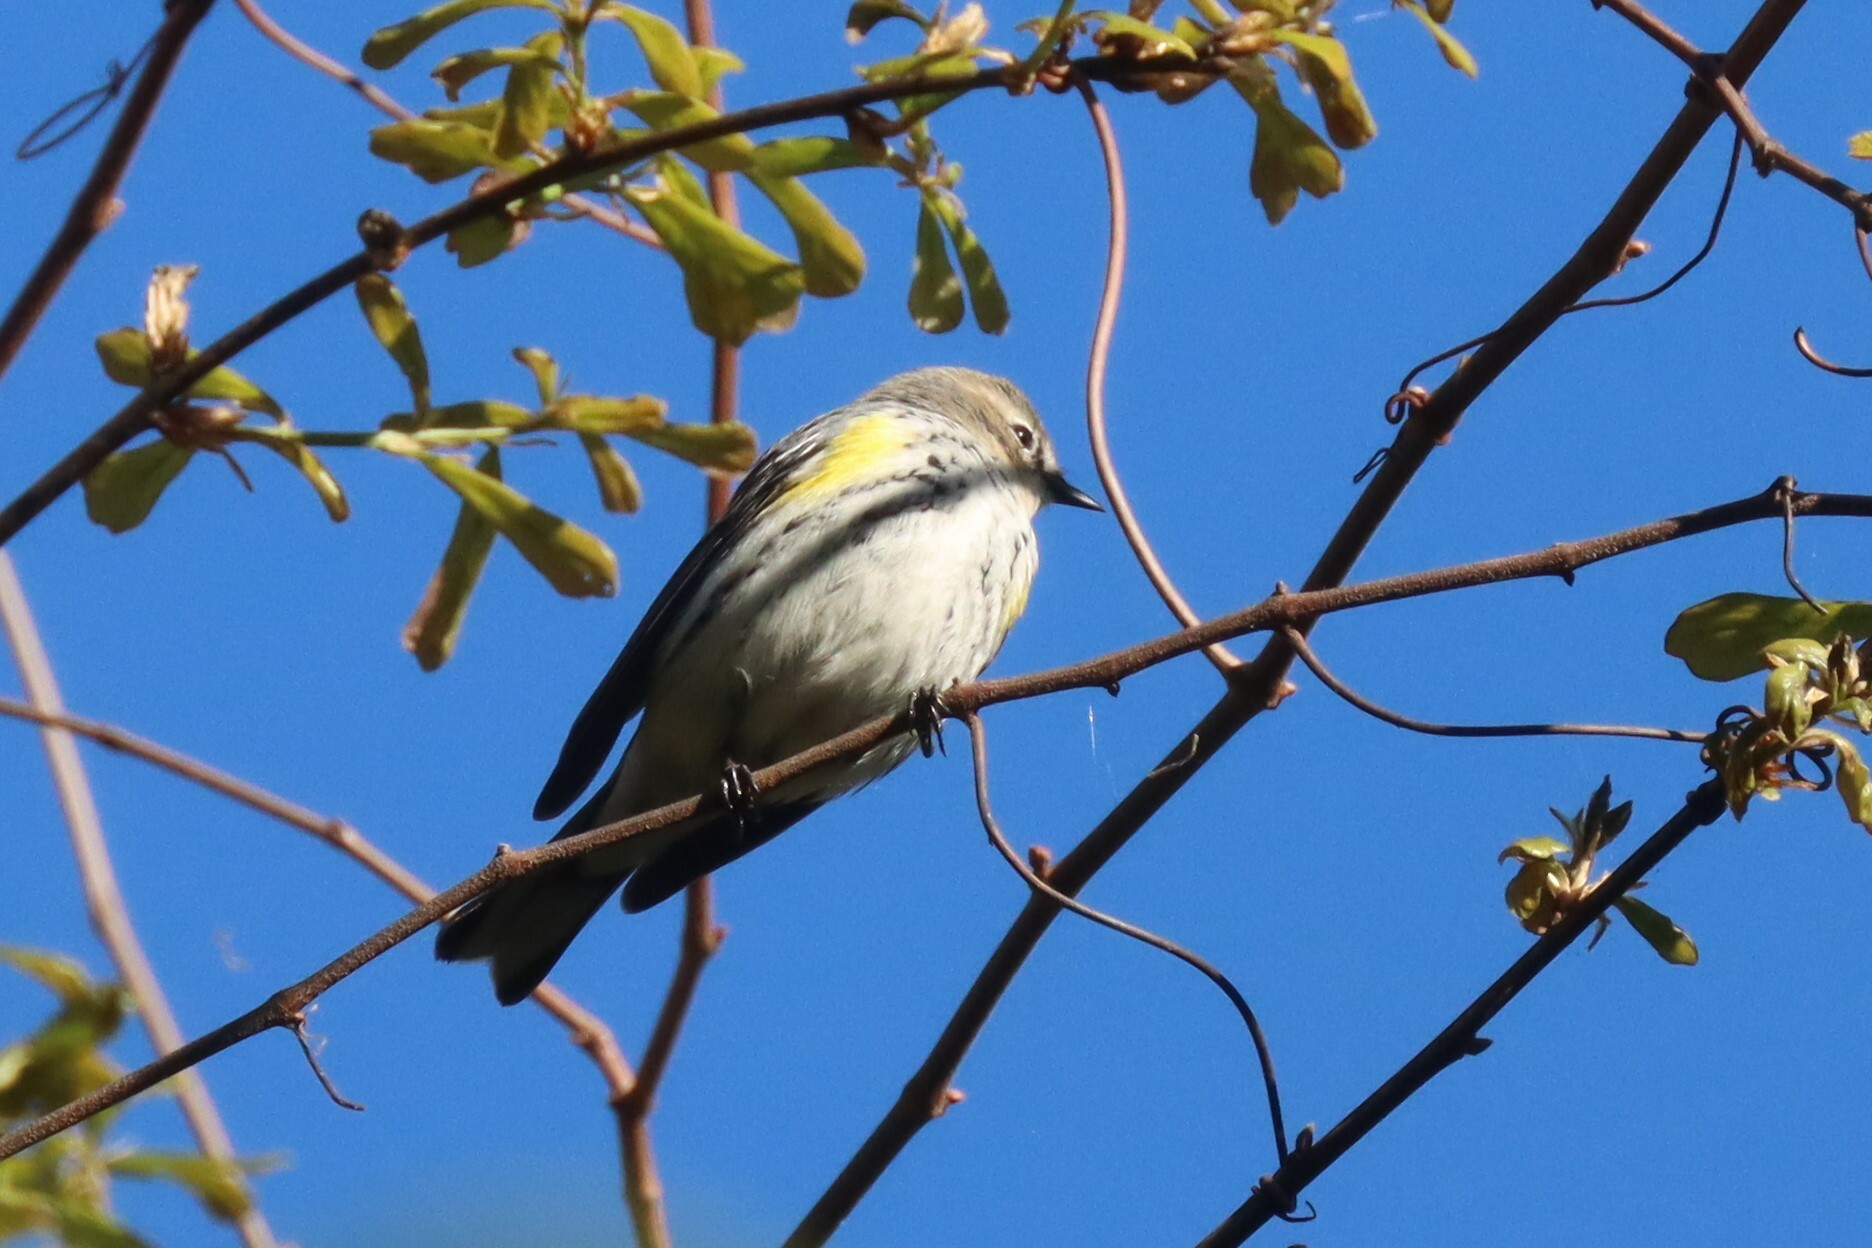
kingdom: Animalia
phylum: Chordata
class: Aves
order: Passeriformes
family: Parulidae
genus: Setophaga
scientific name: Setophaga coronata
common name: Myrtle warbler
